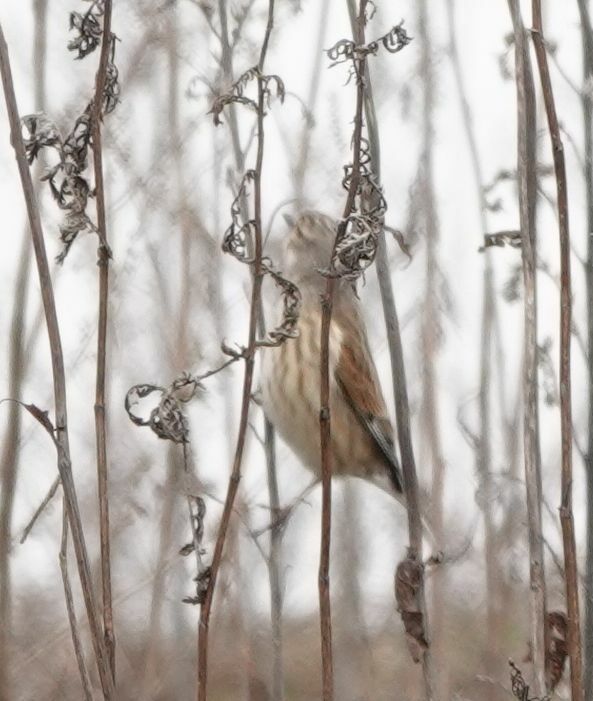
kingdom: Animalia
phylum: Chordata
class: Aves
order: Passeriformes
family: Fringillidae
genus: Linaria
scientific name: Linaria cannabina
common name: Common linnet
